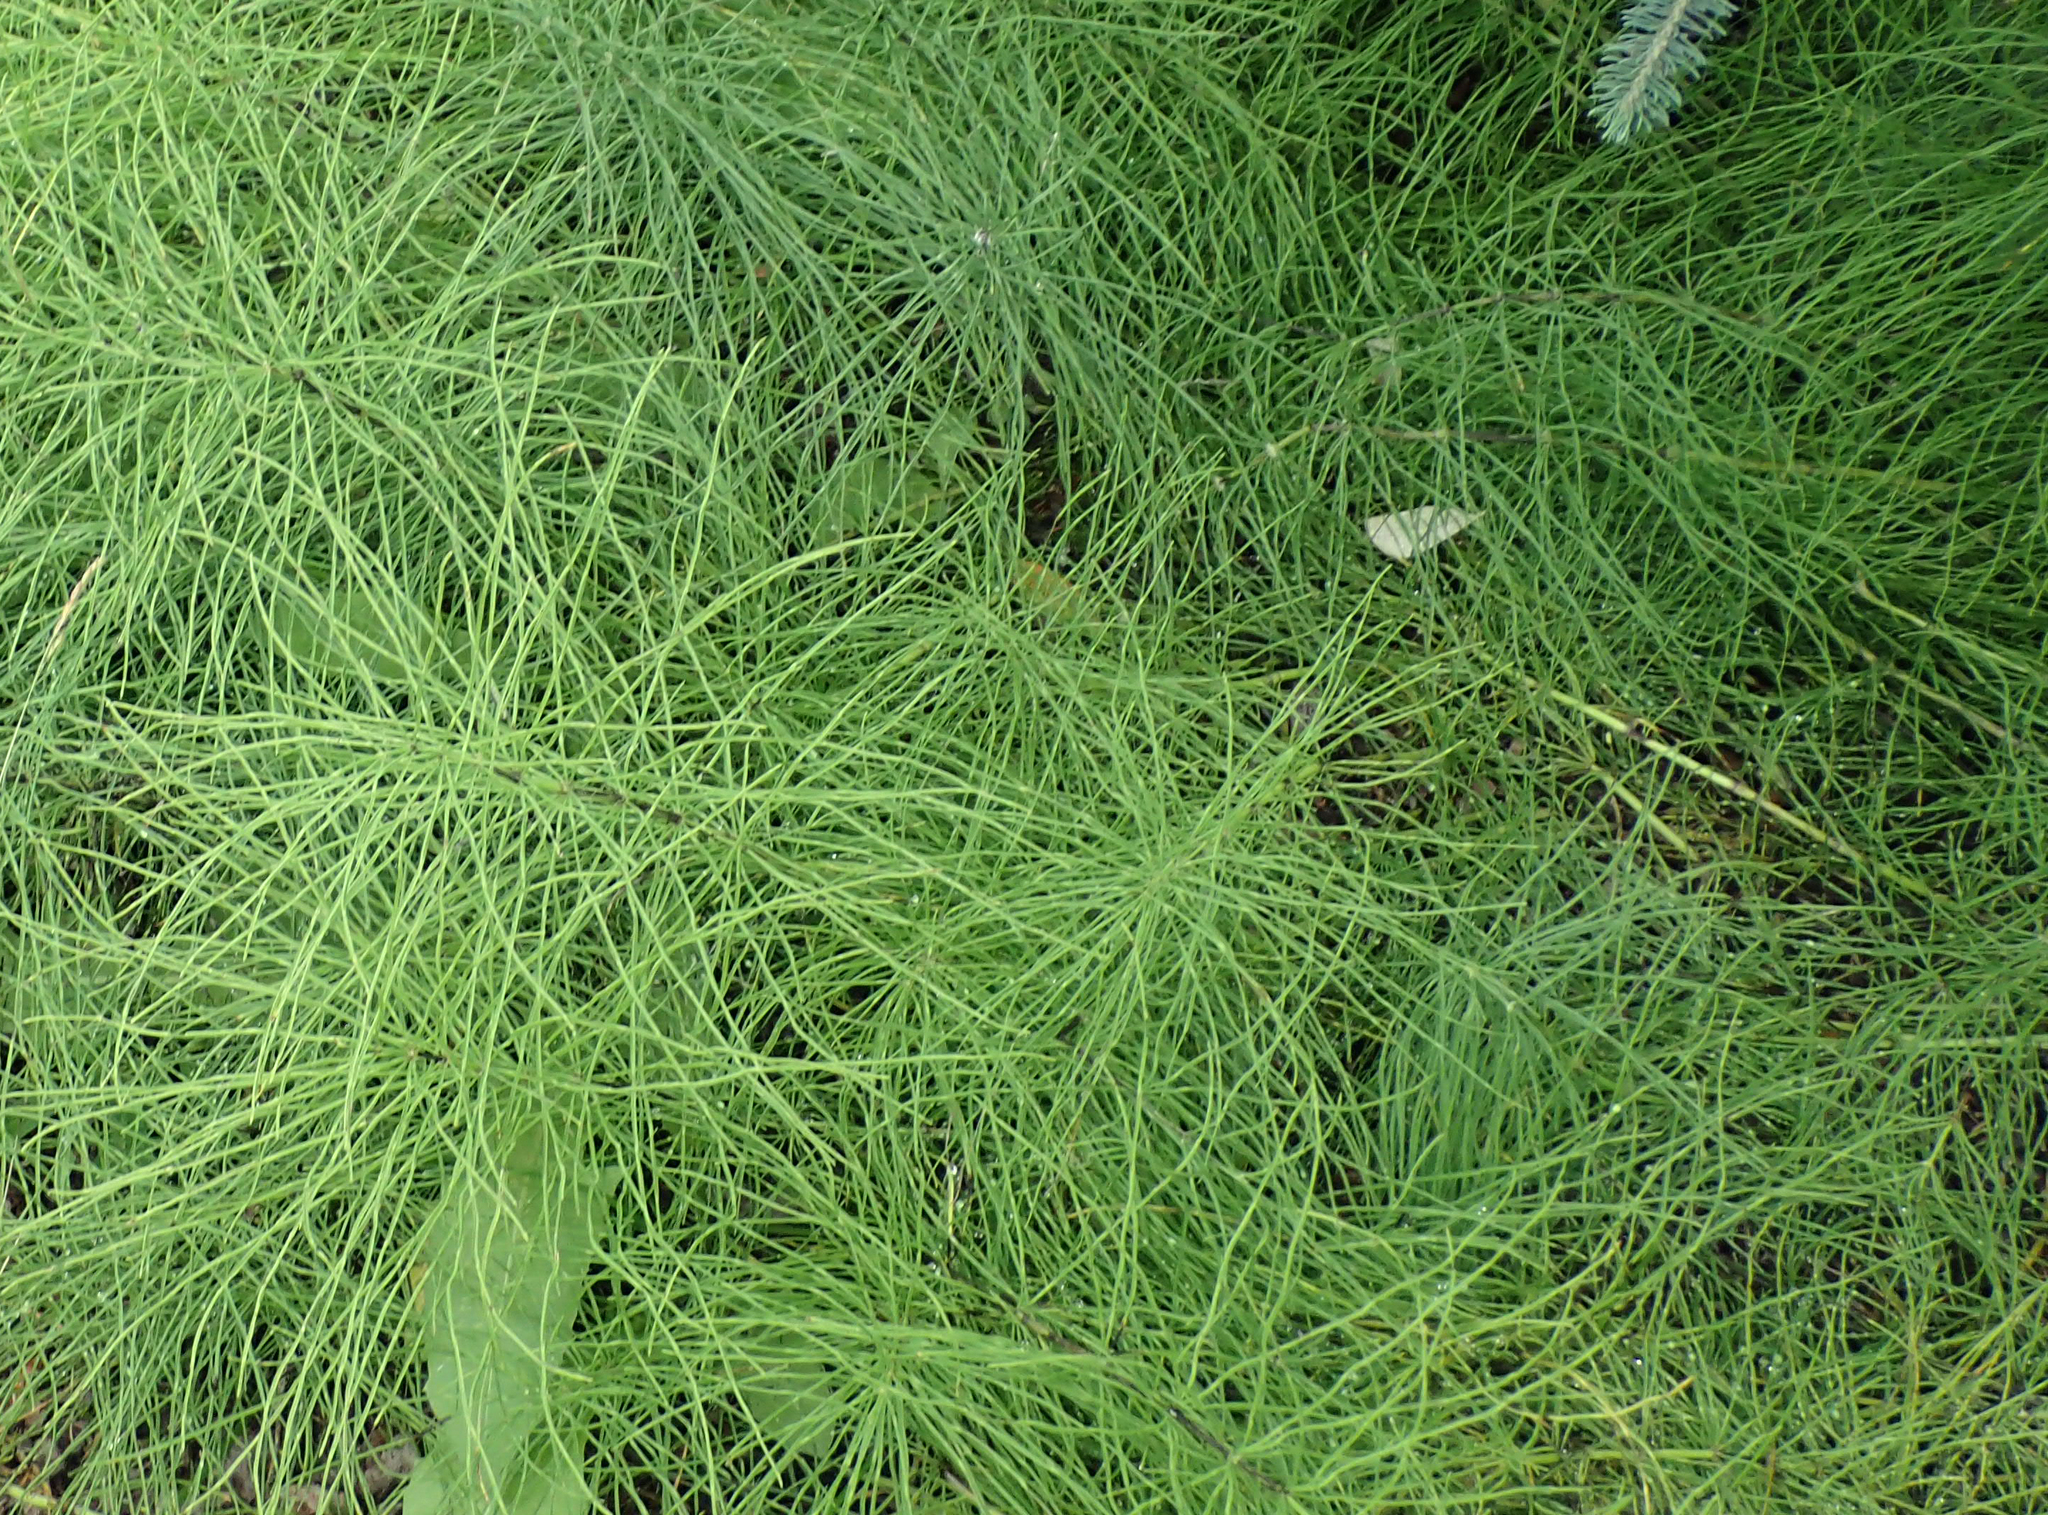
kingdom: Plantae
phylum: Tracheophyta
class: Polypodiopsida
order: Equisetales
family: Equisetaceae
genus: Equisetum
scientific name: Equisetum arvense
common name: Field horsetail
